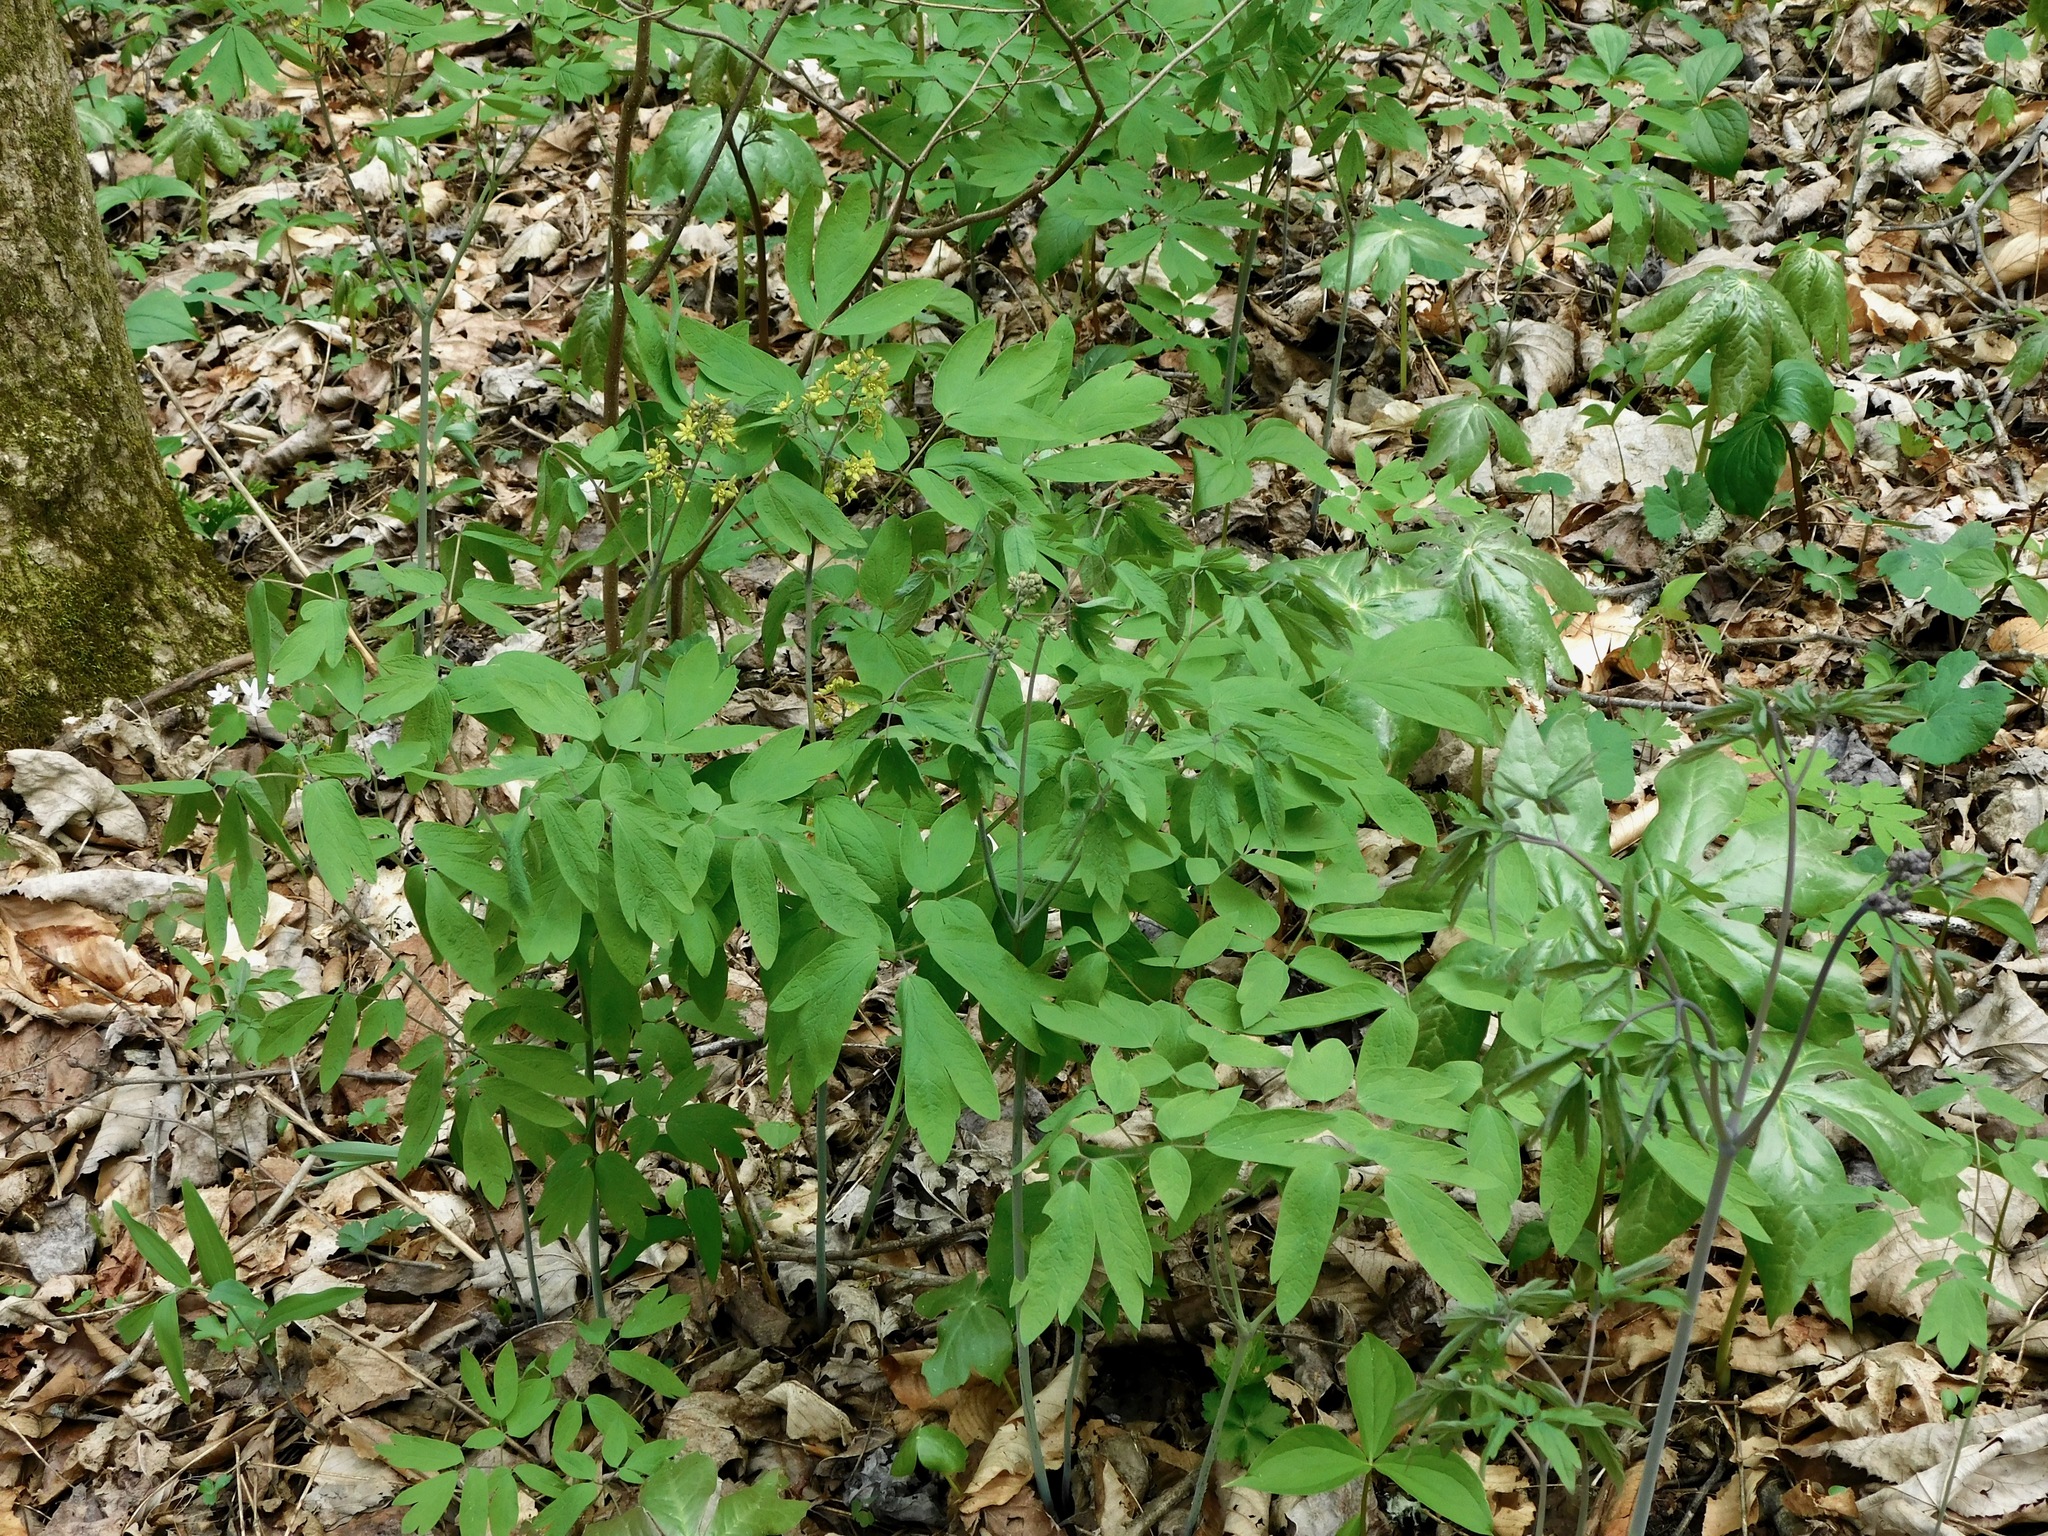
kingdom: Plantae
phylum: Tracheophyta
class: Magnoliopsida
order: Ranunculales
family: Berberidaceae
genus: Caulophyllum
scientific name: Caulophyllum thalictroides
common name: Blue cohosh
